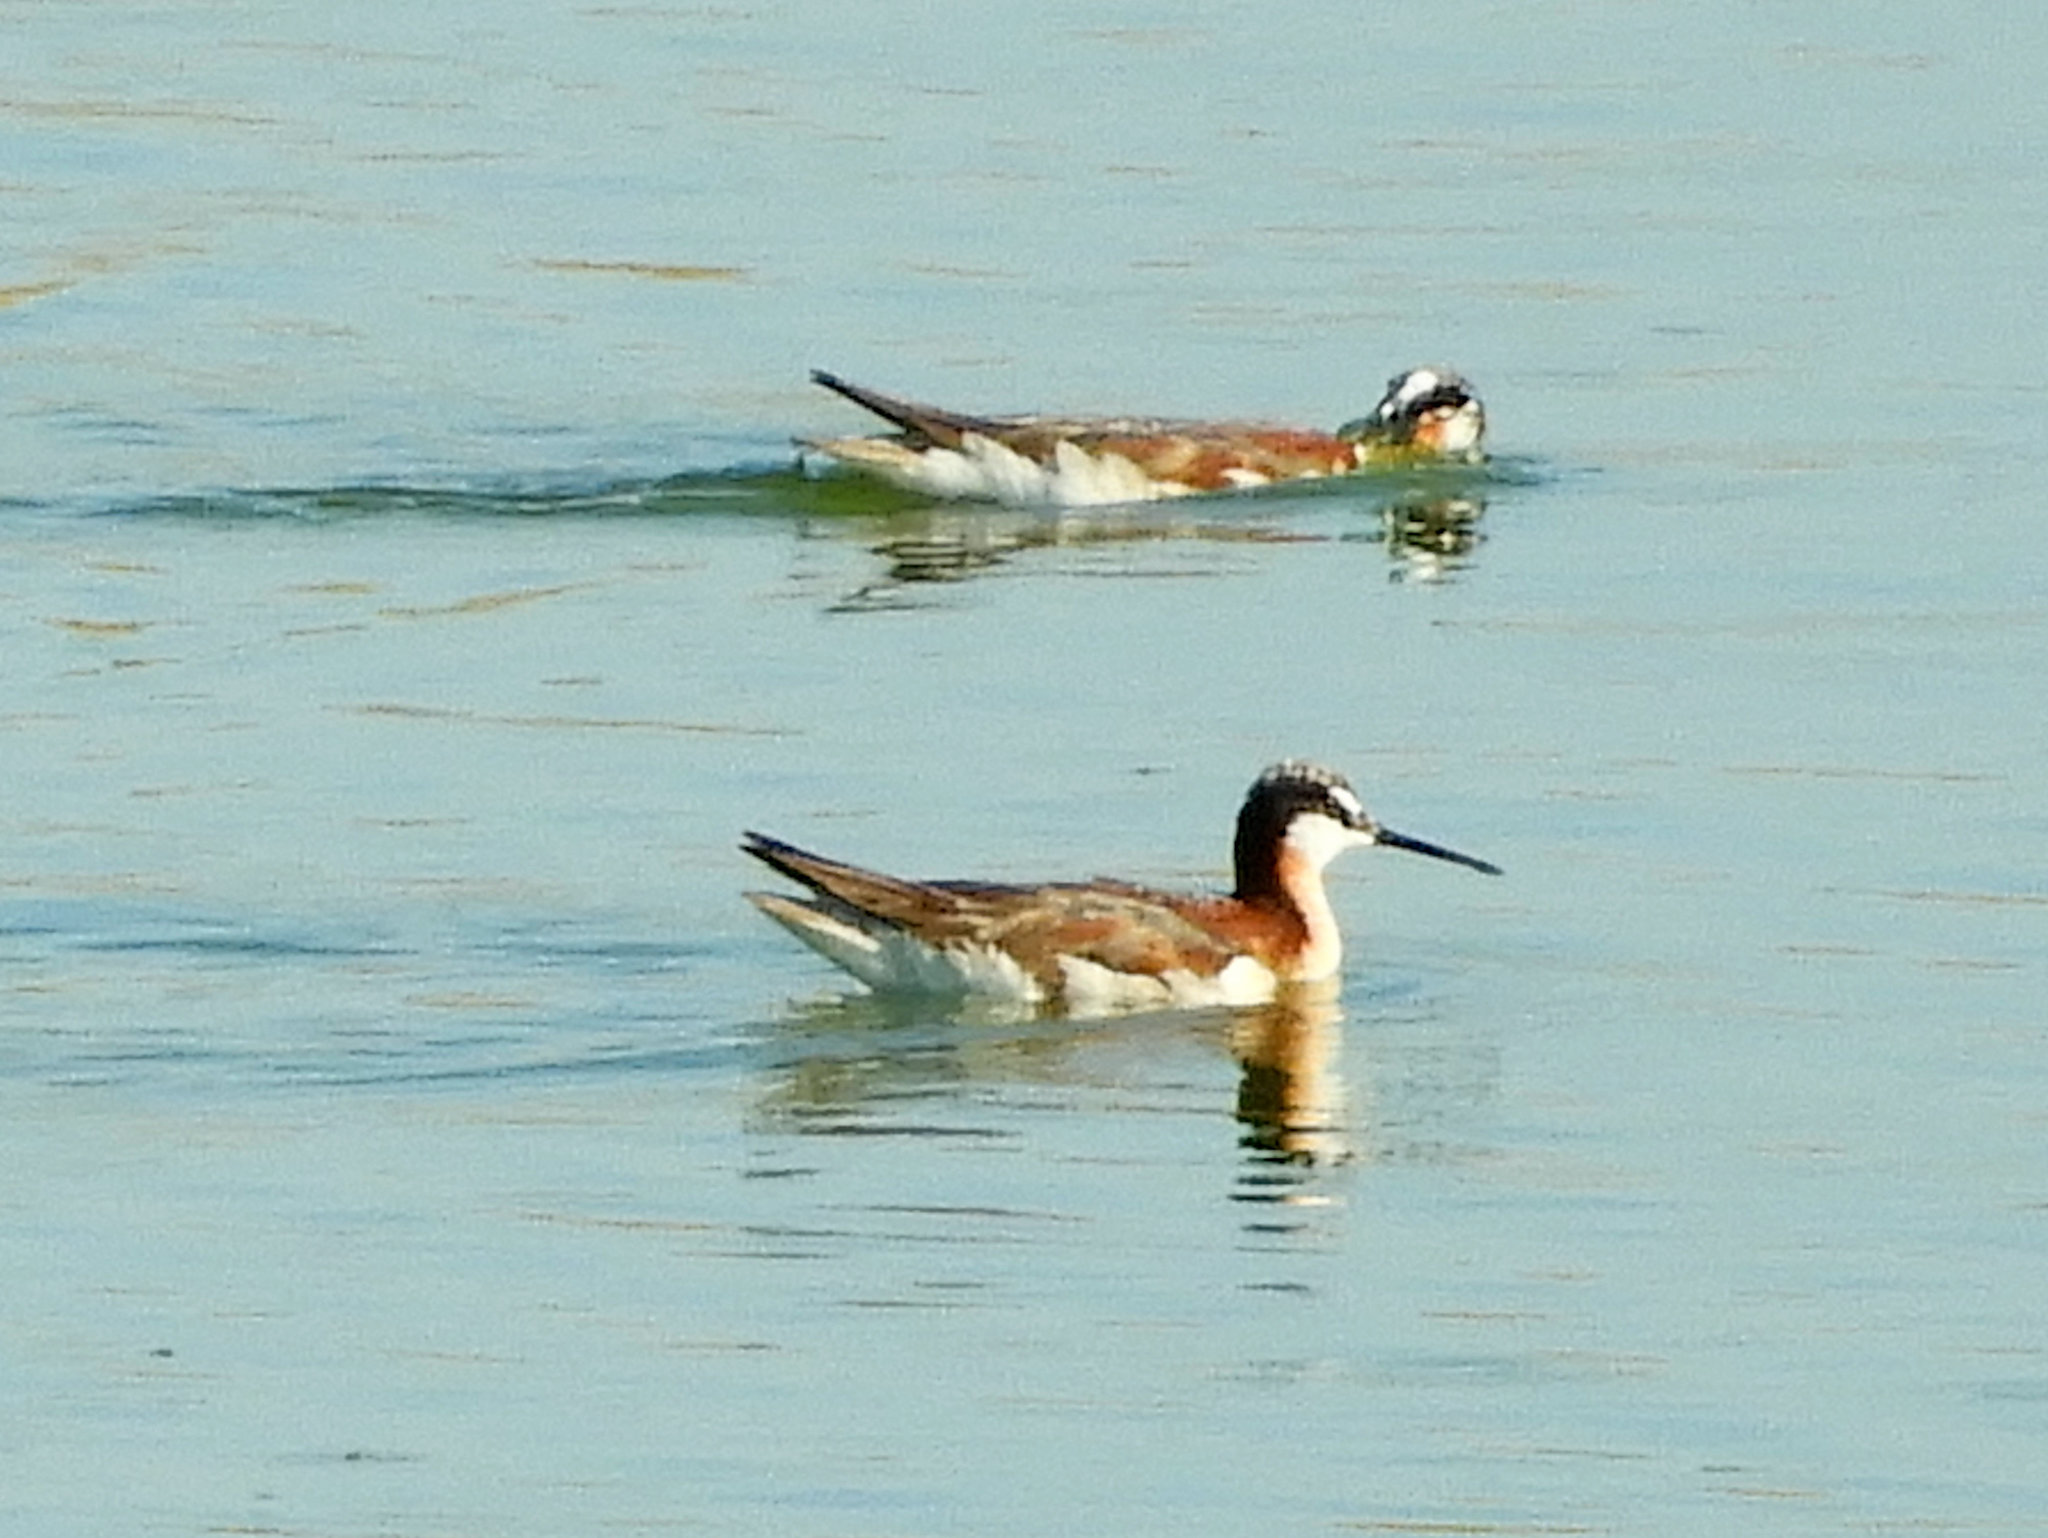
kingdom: Animalia
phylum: Chordata
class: Aves
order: Charadriiformes
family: Scolopacidae
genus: Phalaropus
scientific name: Phalaropus tricolor
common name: Wilson's phalarope
